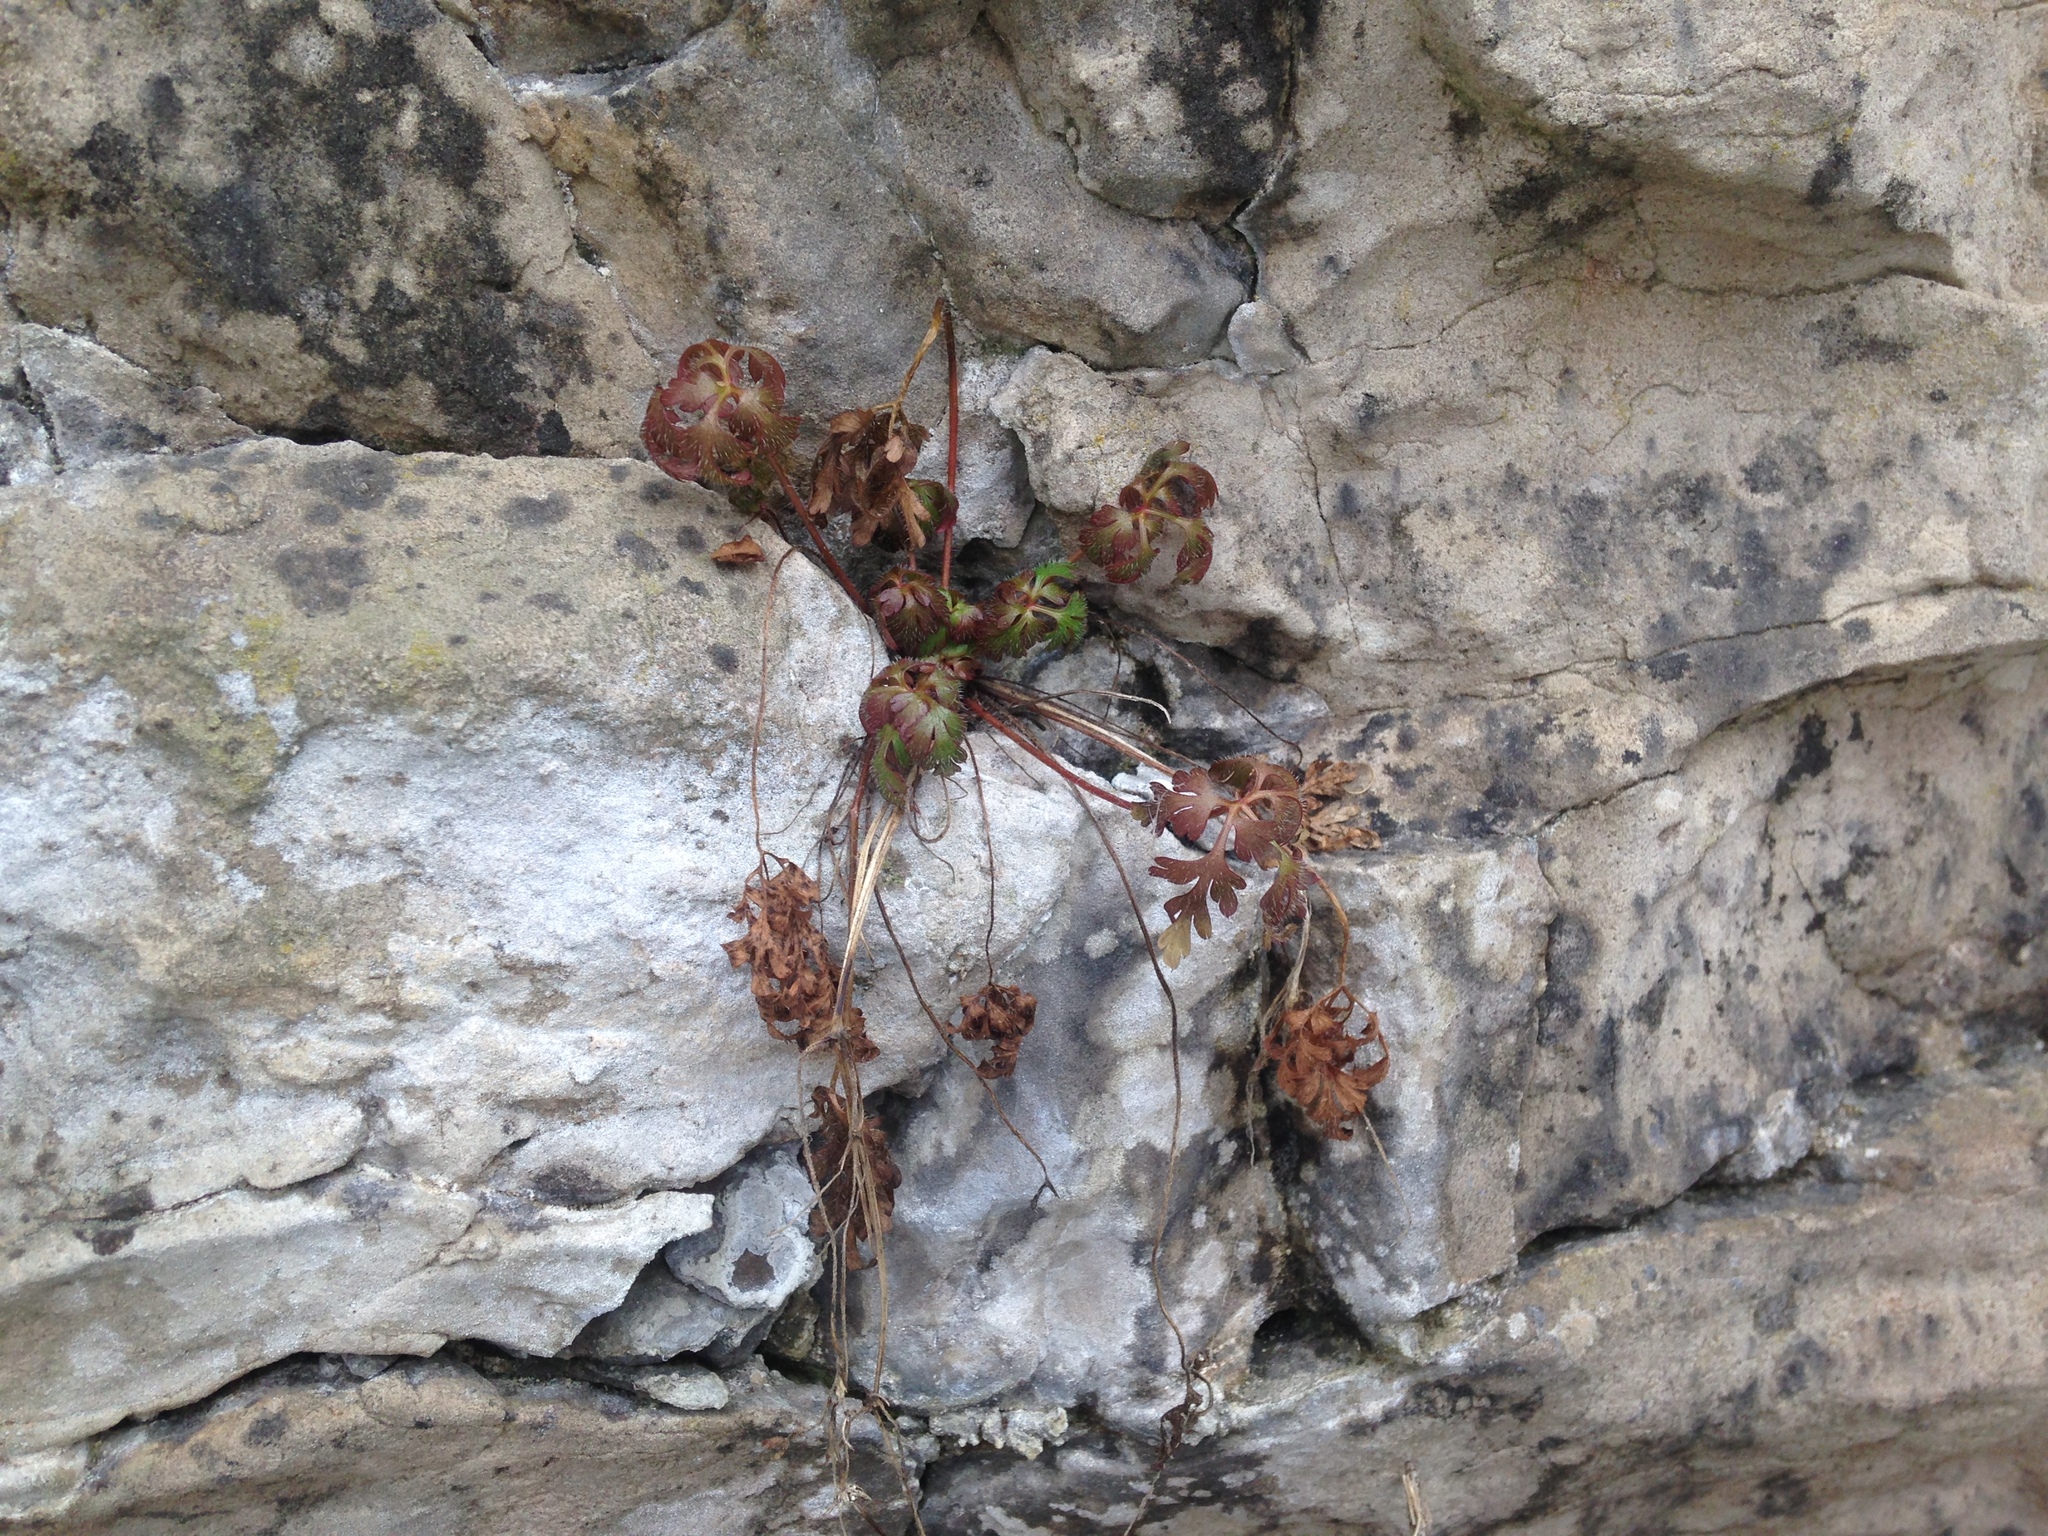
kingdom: Plantae
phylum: Tracheophyta
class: Magnoliopsida
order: Geraniales
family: Geraniaceae
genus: Geranium
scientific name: Geranium robertianum
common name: Herb-robert
